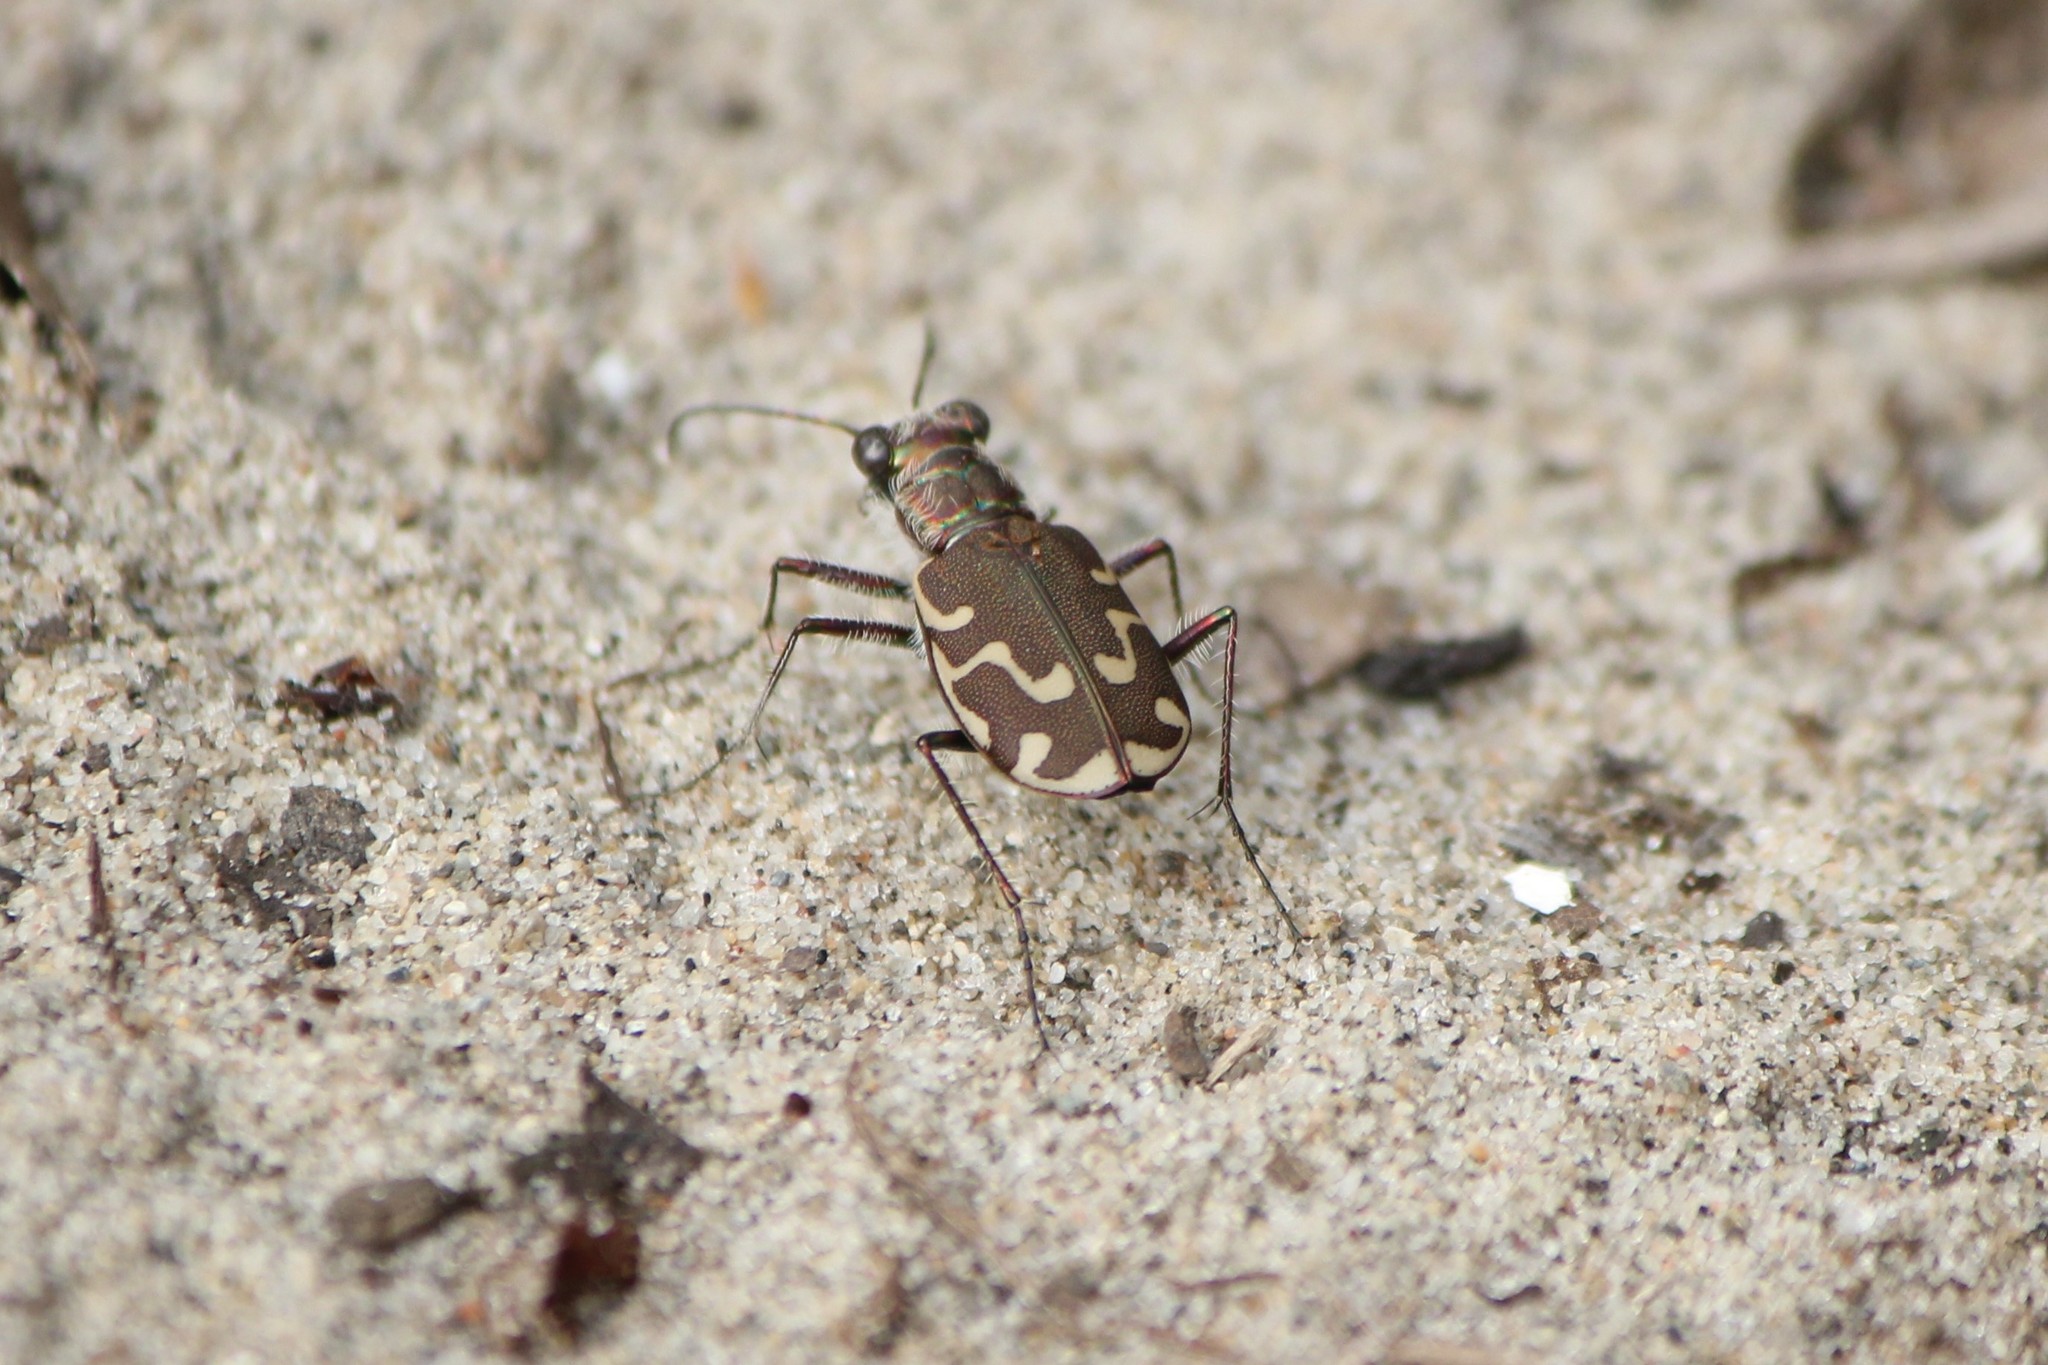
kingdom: Animalia
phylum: Arthropoda
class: Insecta
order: Coleoptera
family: Carabidae
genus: Cicindela
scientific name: Cicindela repanda
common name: Bronzed tiger beetle
